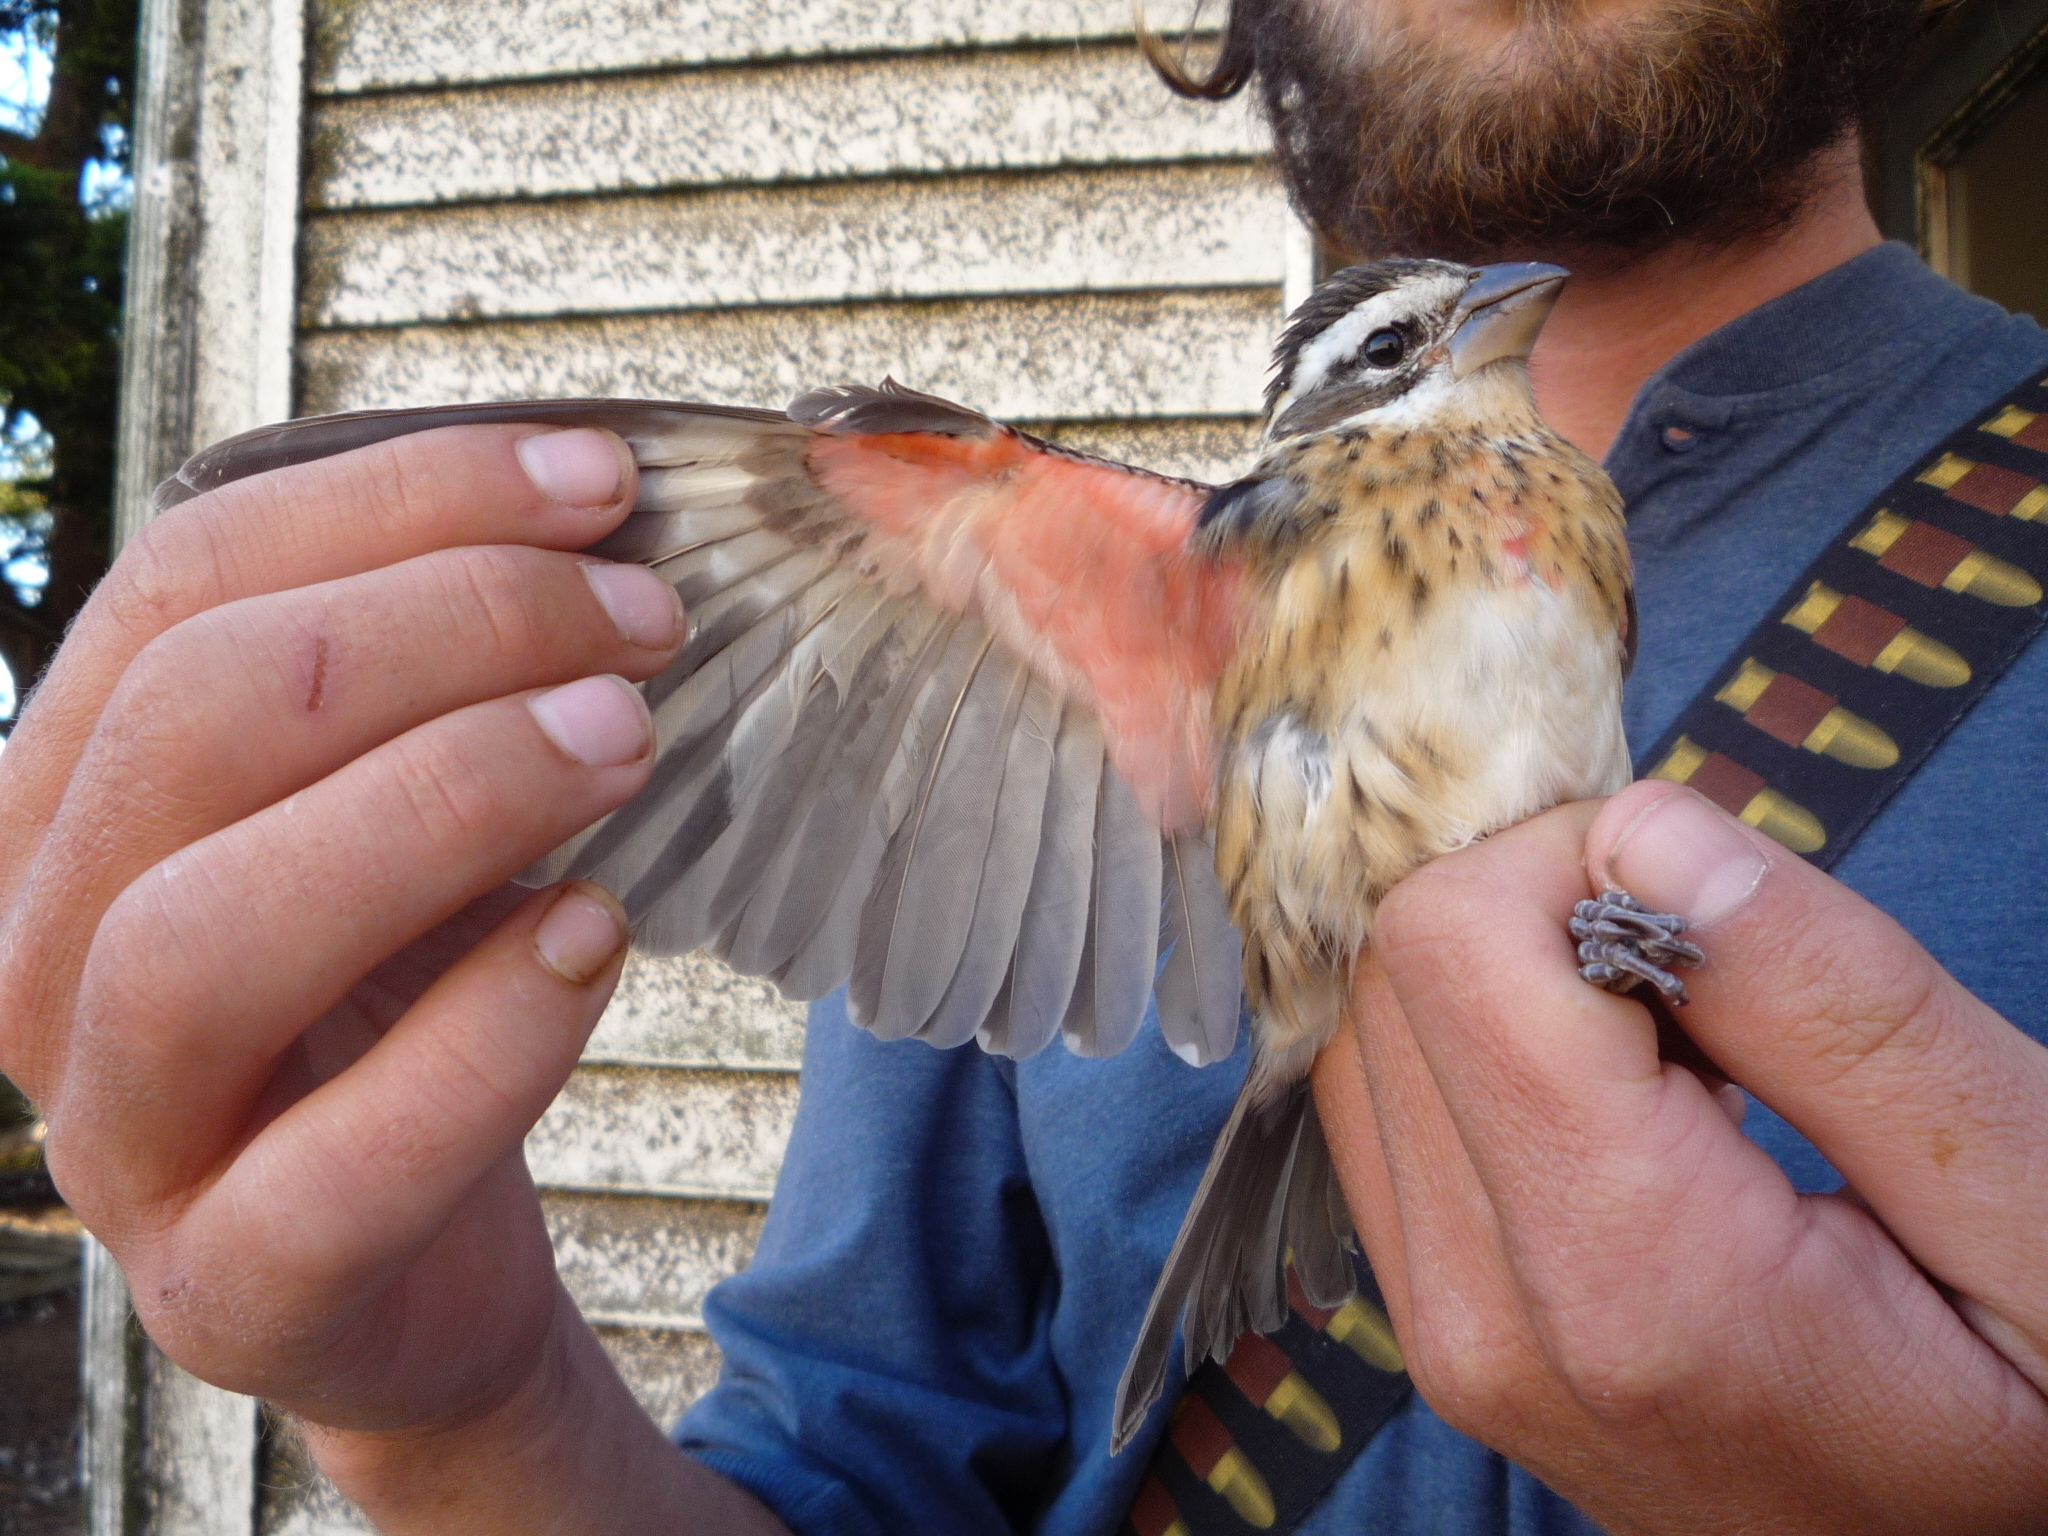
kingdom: Animalia
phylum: Chordata
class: Aves
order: Passeriformes
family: Cardinalidae
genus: Pheucticus
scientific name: Pheucticus ludovicianus
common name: Rose-breasted grosbeak
